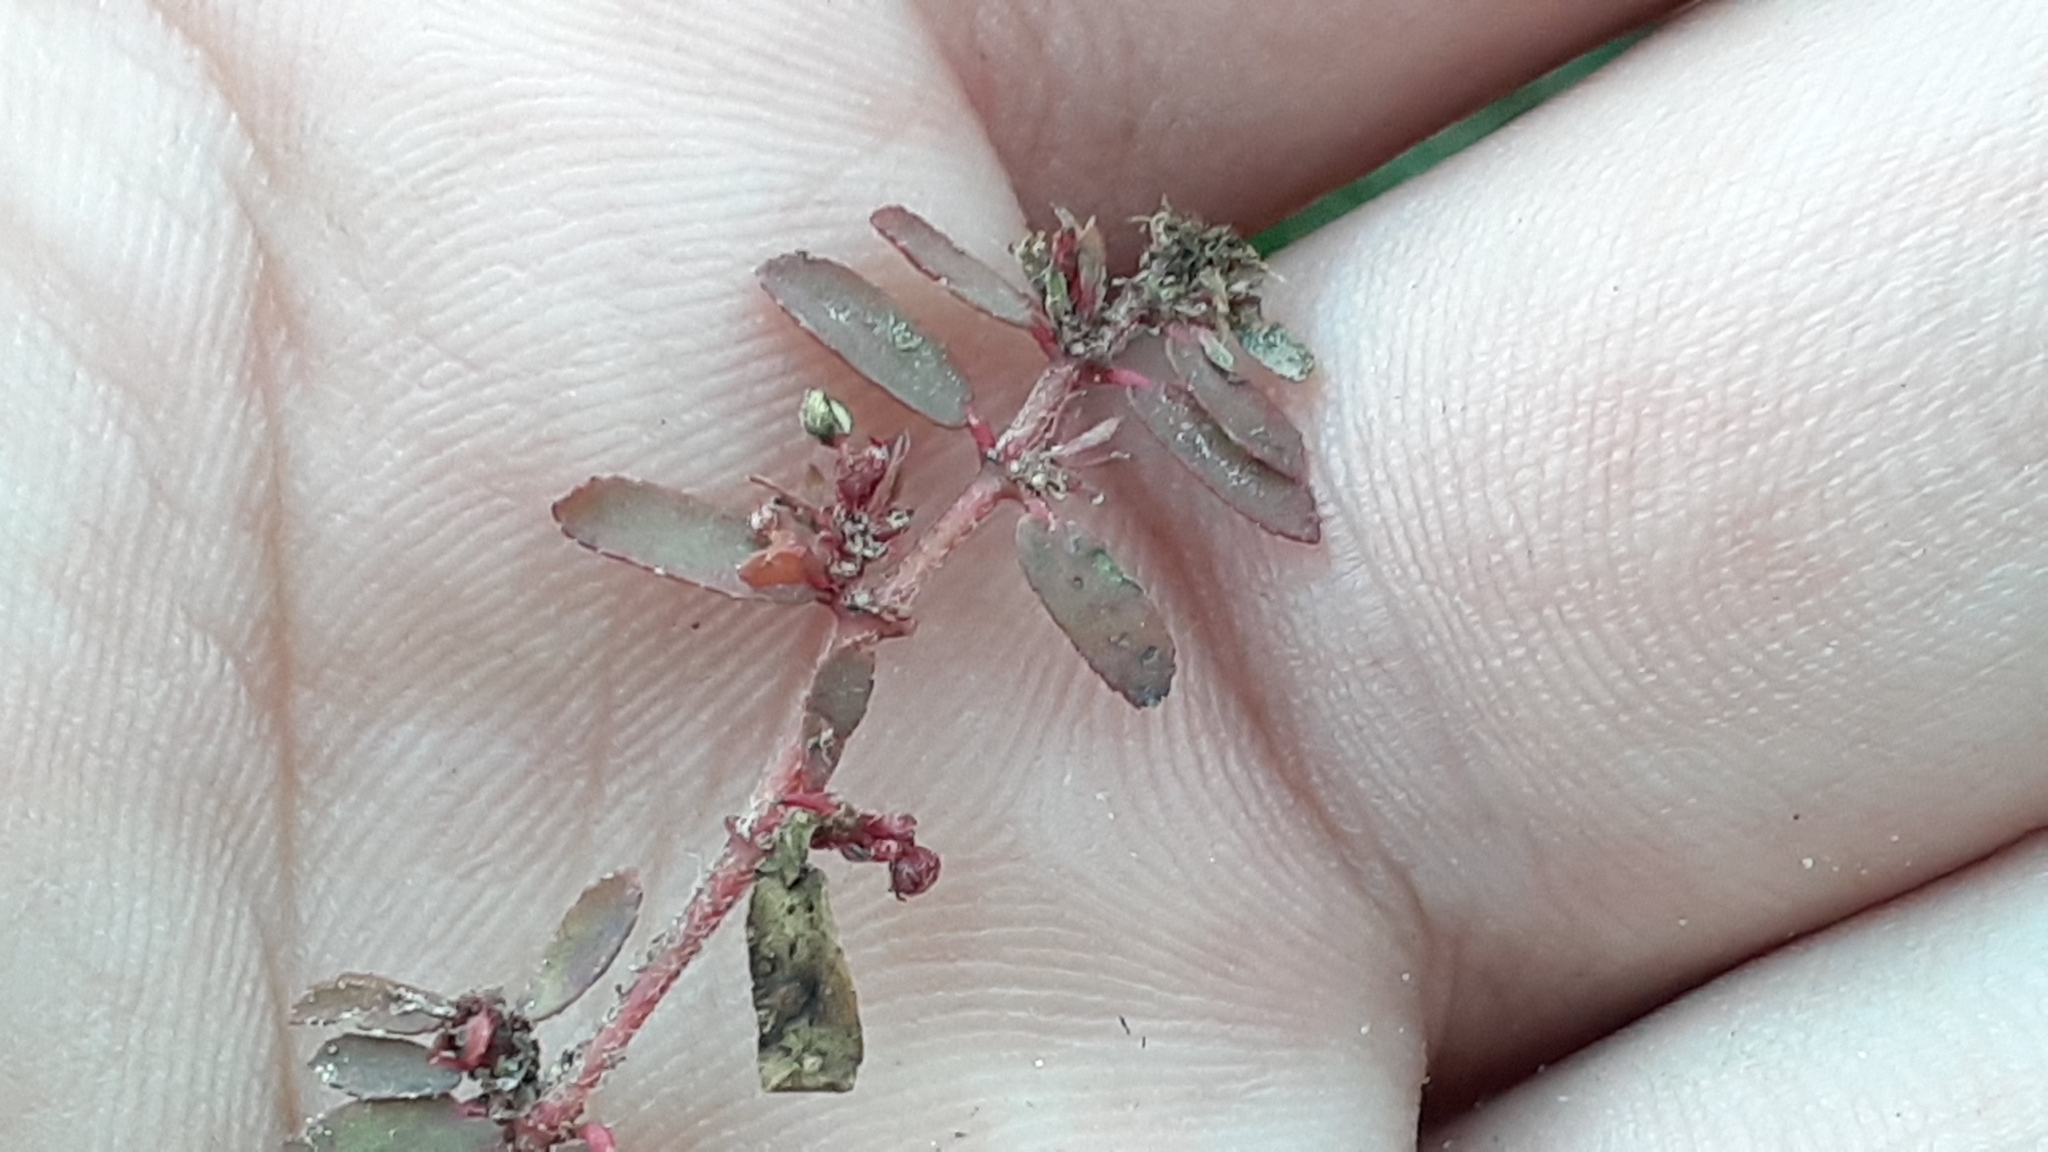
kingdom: Plantae
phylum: Tracheophyta
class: Magnoliopsida
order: Malpighiales
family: Euphorbiaceae
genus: Euphorbia
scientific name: Euphorbia maculata
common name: Spotted spurge
